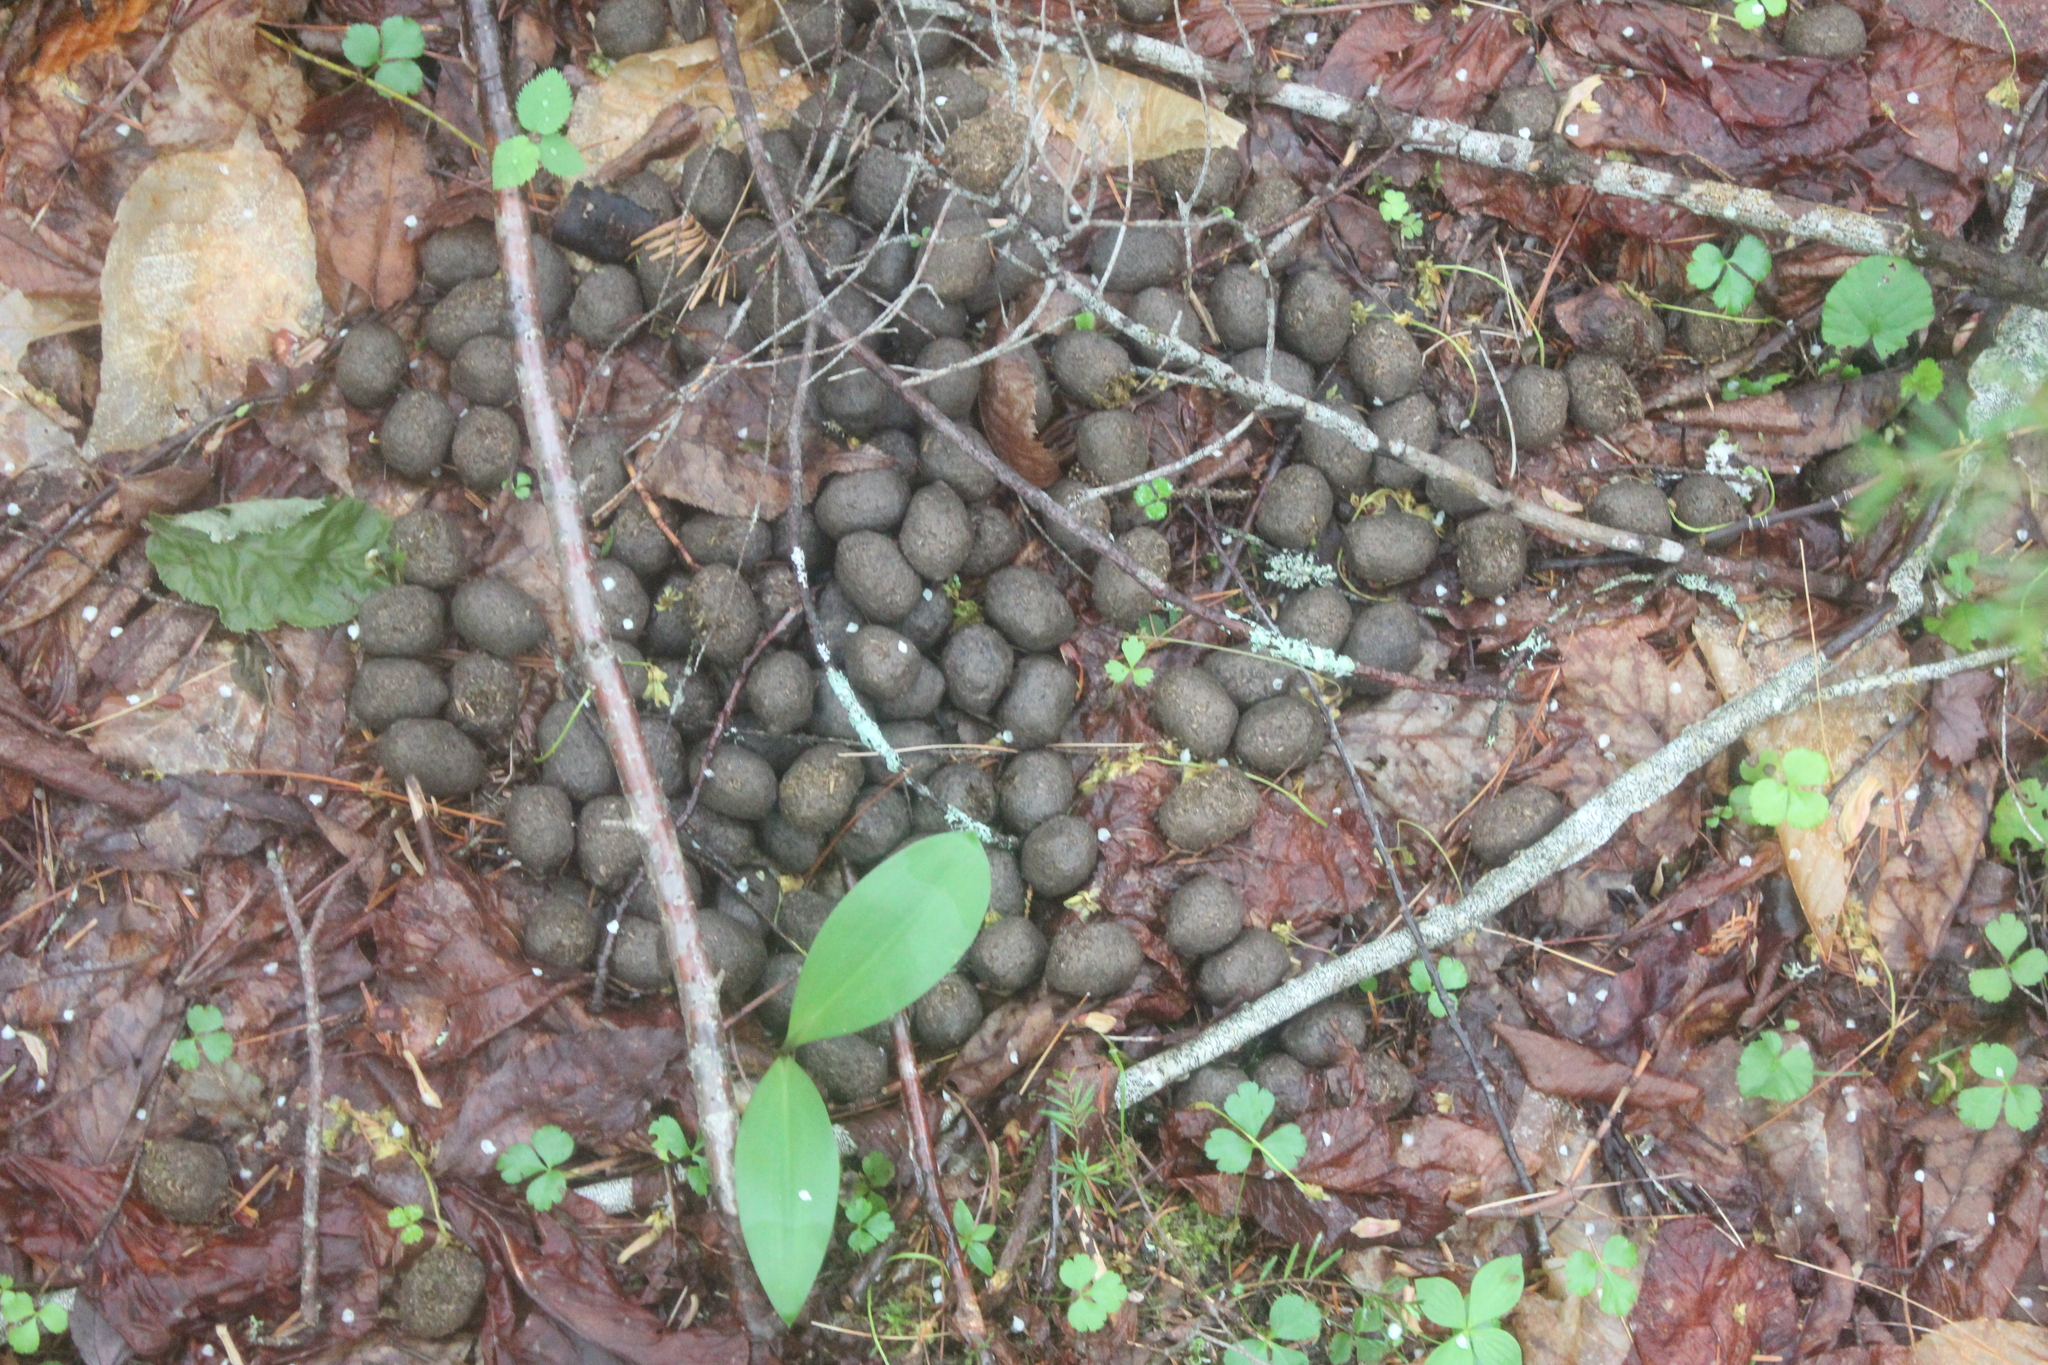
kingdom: Animalia
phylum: Chordata
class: Mammalia
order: Artiodactyla
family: Cervidae
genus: Alces
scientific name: Alces alces
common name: Moose
